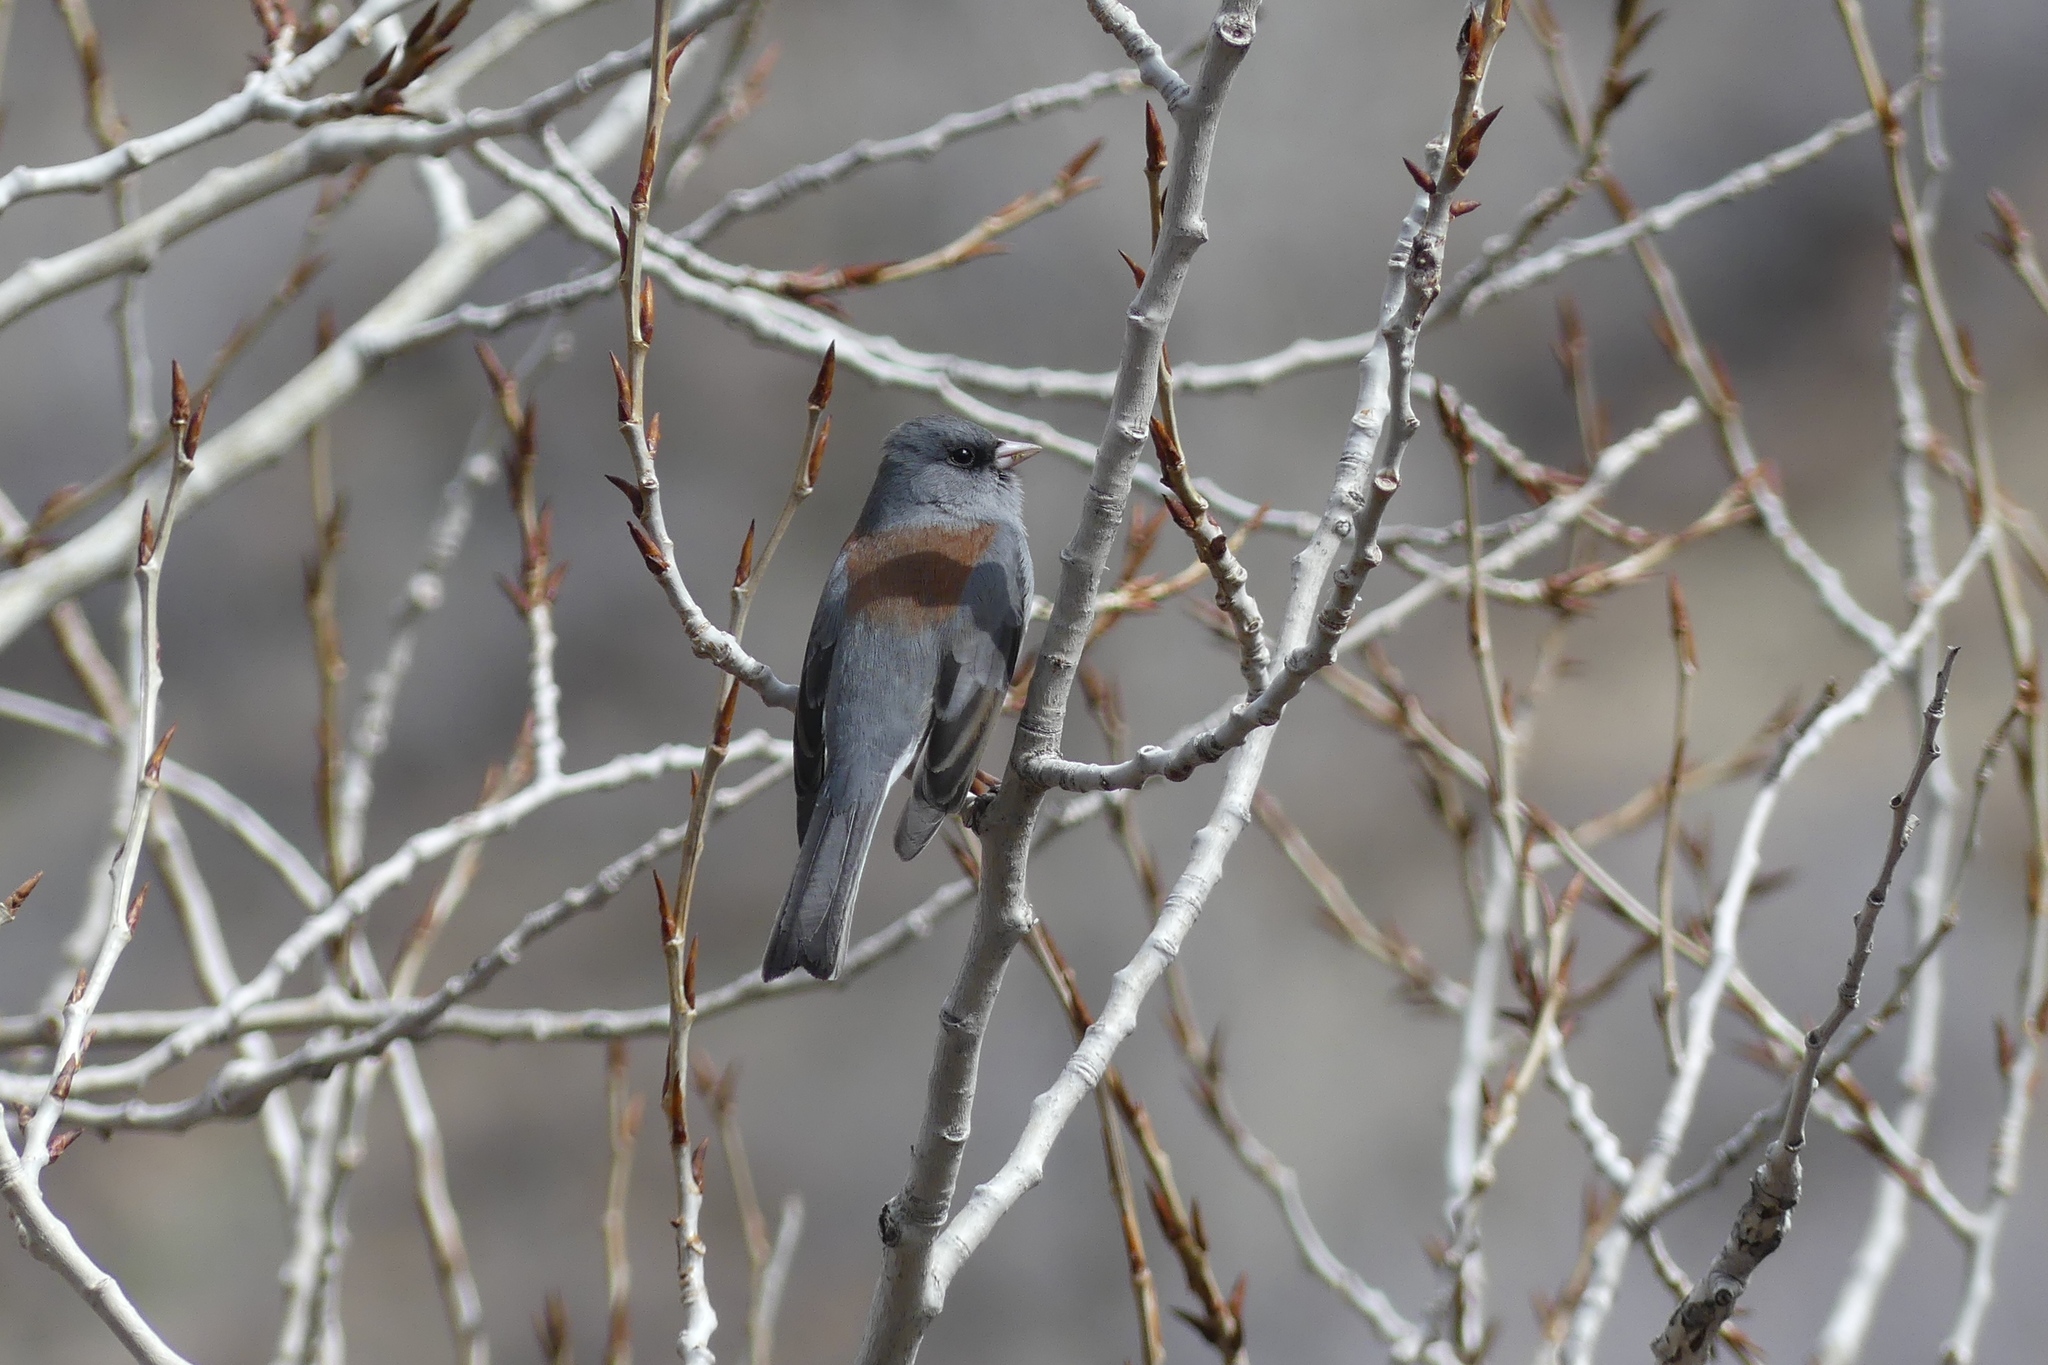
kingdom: Animalia
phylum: Chordata
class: Aves
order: Passeriformes
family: Passerellidae
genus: Junco
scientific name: Junco hyemalis
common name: Dark-eyed junco
